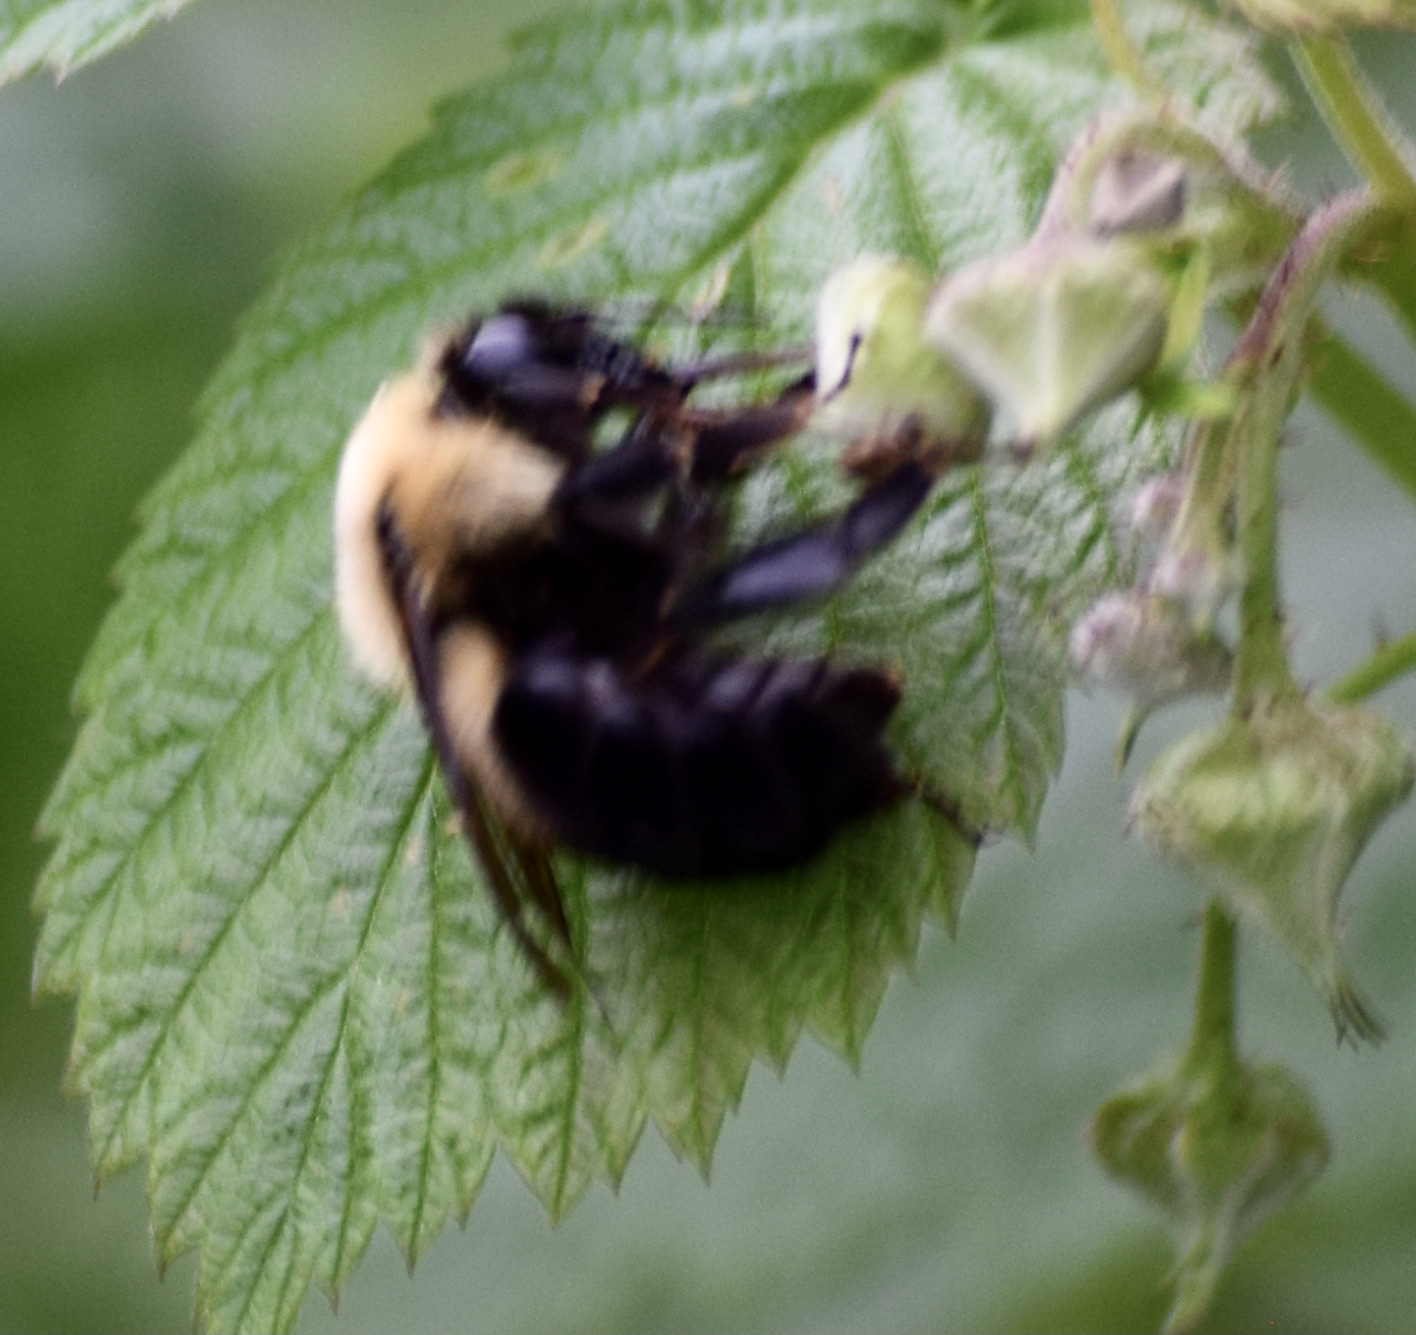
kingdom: Animalia
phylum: Arthropoda
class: Insecta
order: Hymenoptera
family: Apidae
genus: Bombus
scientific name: Bombus bimaculatus
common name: Two-spotted bumble bee
